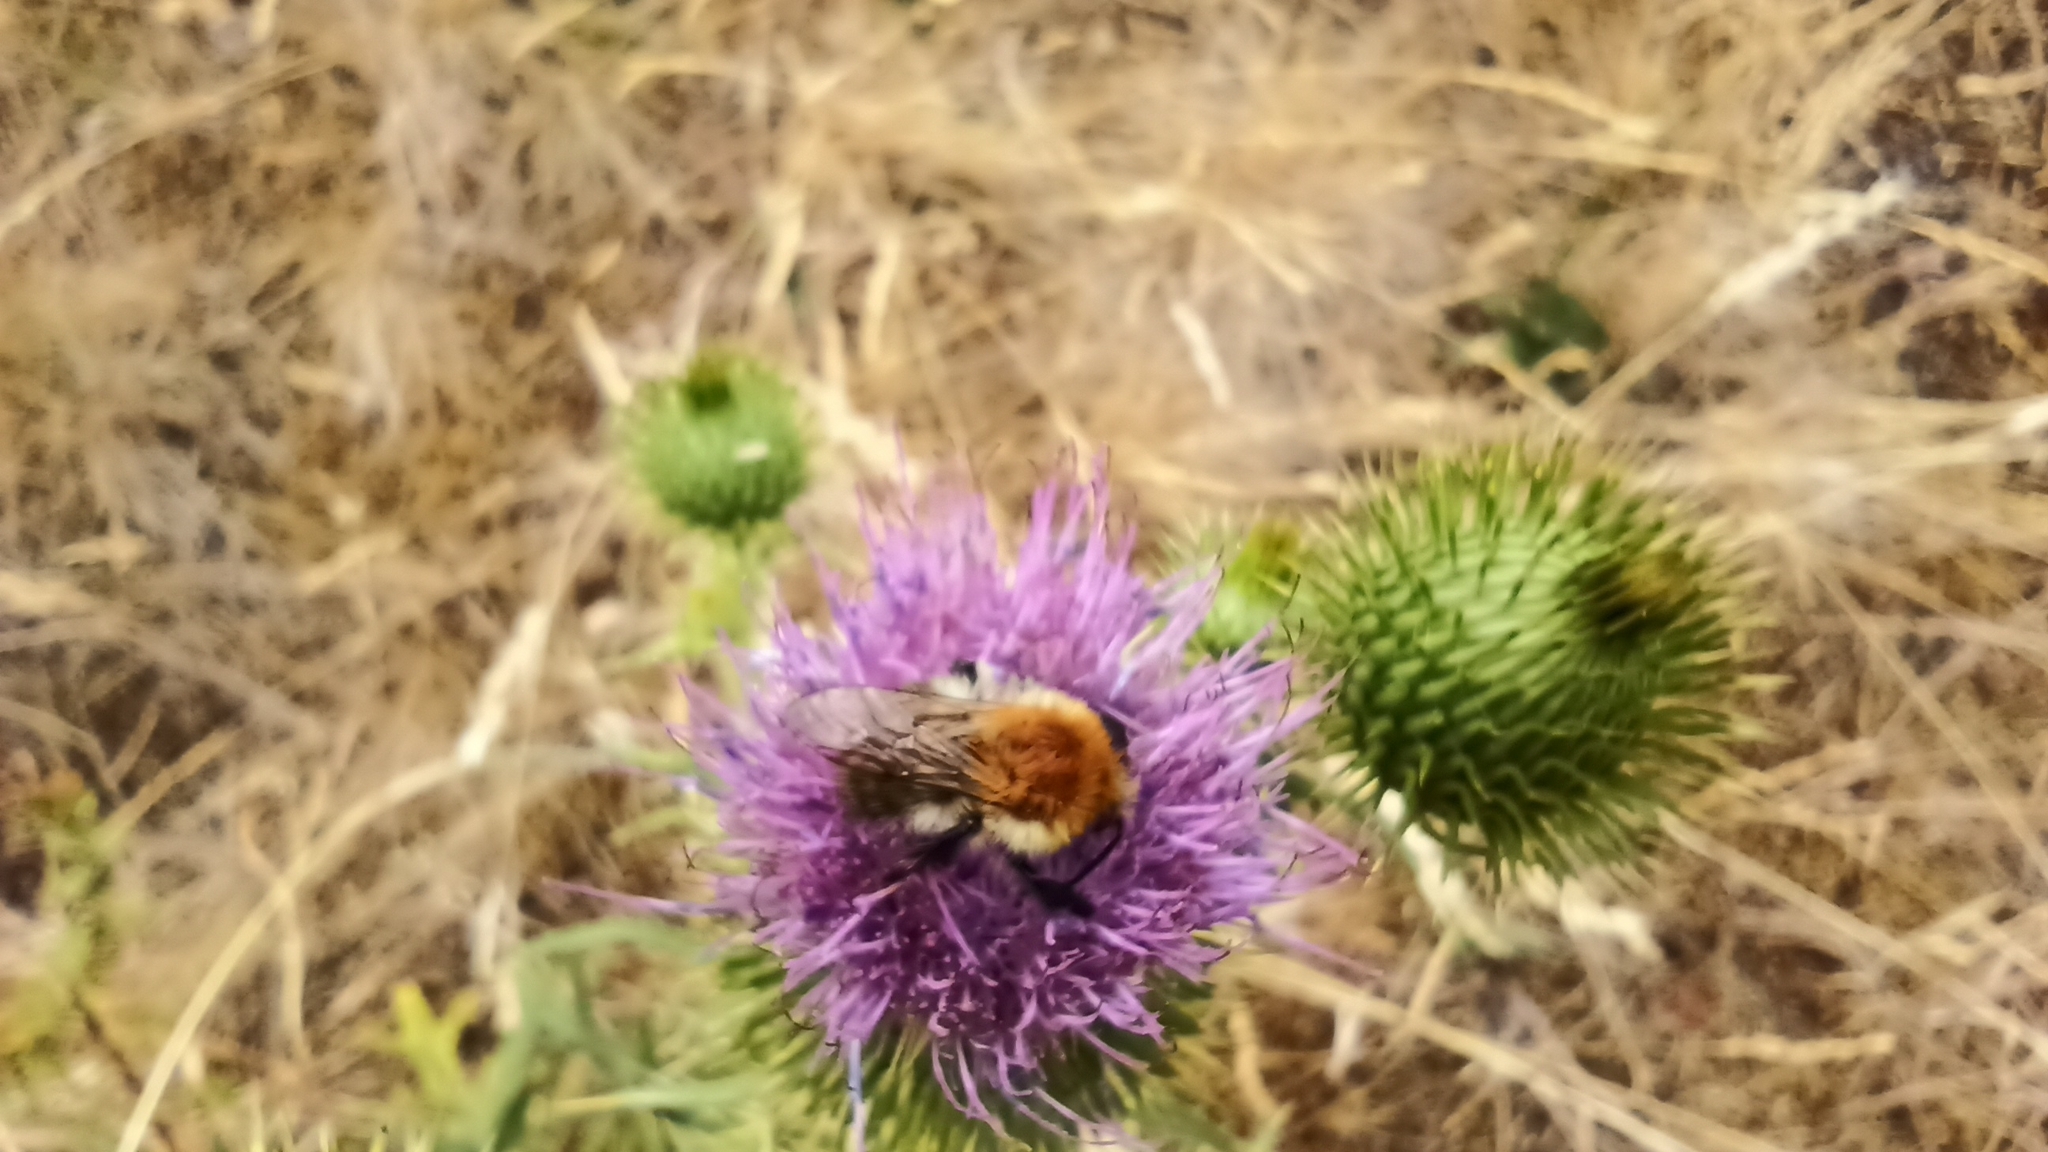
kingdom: Animalia
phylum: Arthropoda
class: Insecta
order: Hymenoptera
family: Apidae
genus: Bombus
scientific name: Bombus pascuorum
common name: Common carder bee
